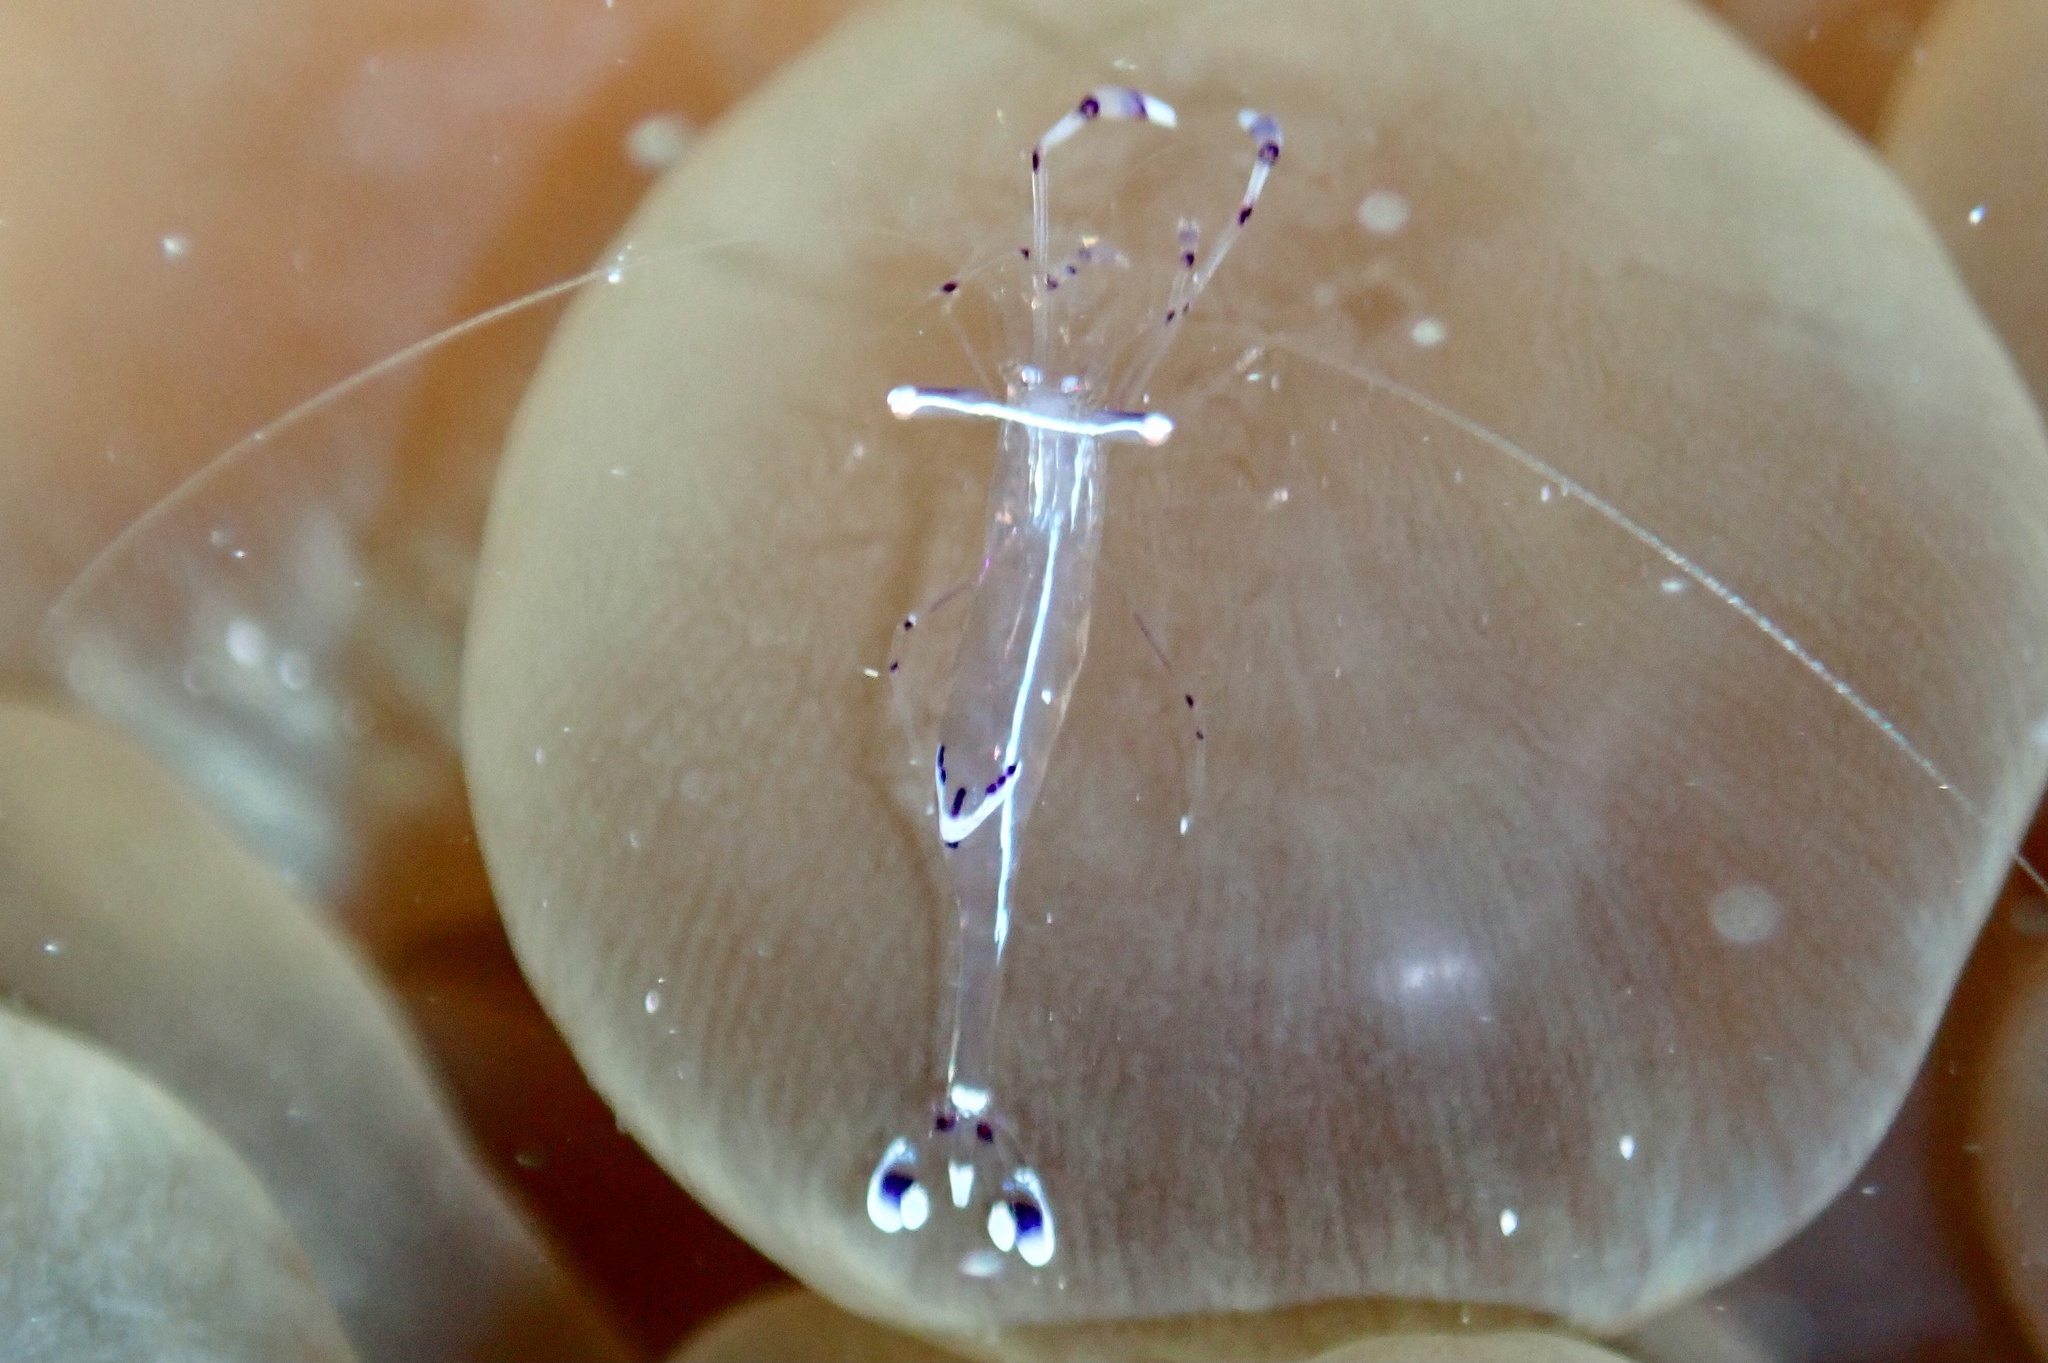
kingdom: Animalia
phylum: Arthropoda
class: Malacostraca
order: Decapoda
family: Palaemonidae
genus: Ancylomenes
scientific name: Ancylomenes longicarpus
